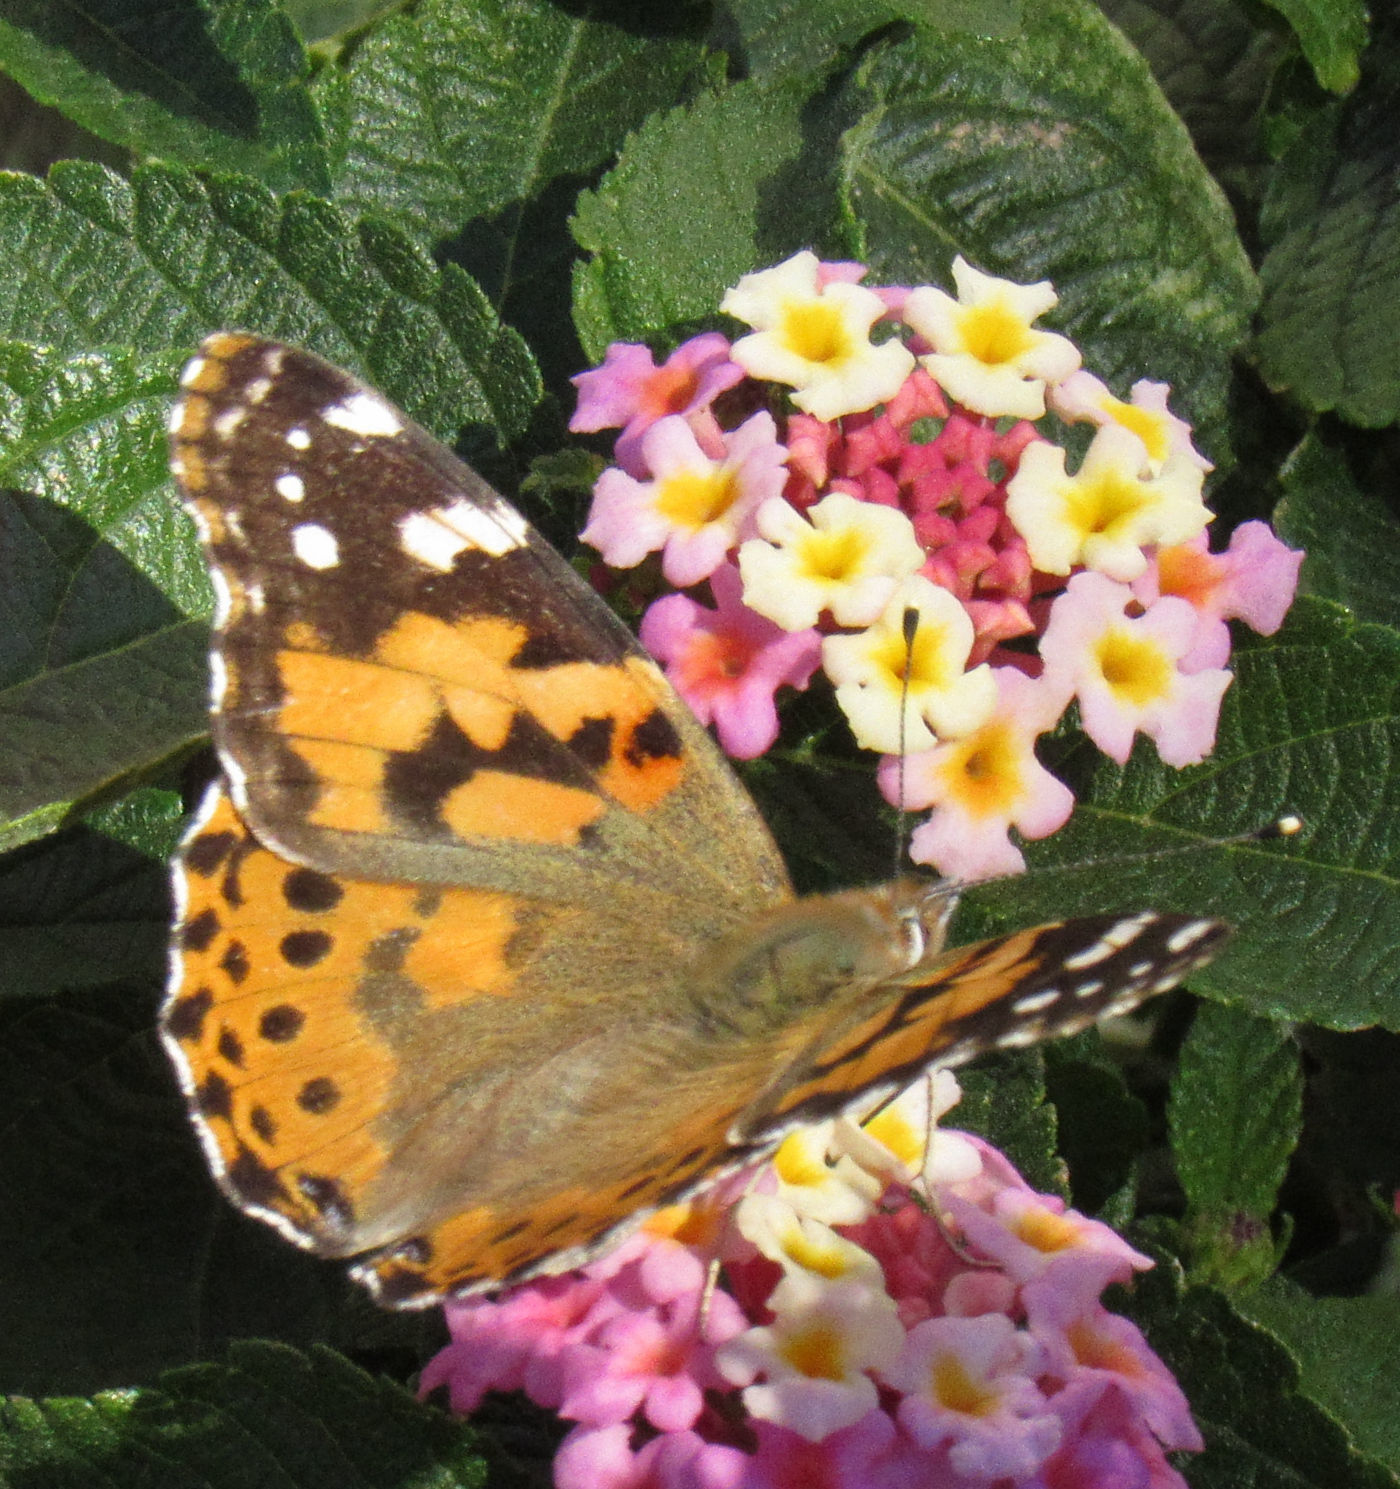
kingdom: Animalia
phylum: Arthropoda
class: Insecta
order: Lepidoptera
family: Nymphalidae
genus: Vanessa
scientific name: Vanessa cardui
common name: Painted lady
